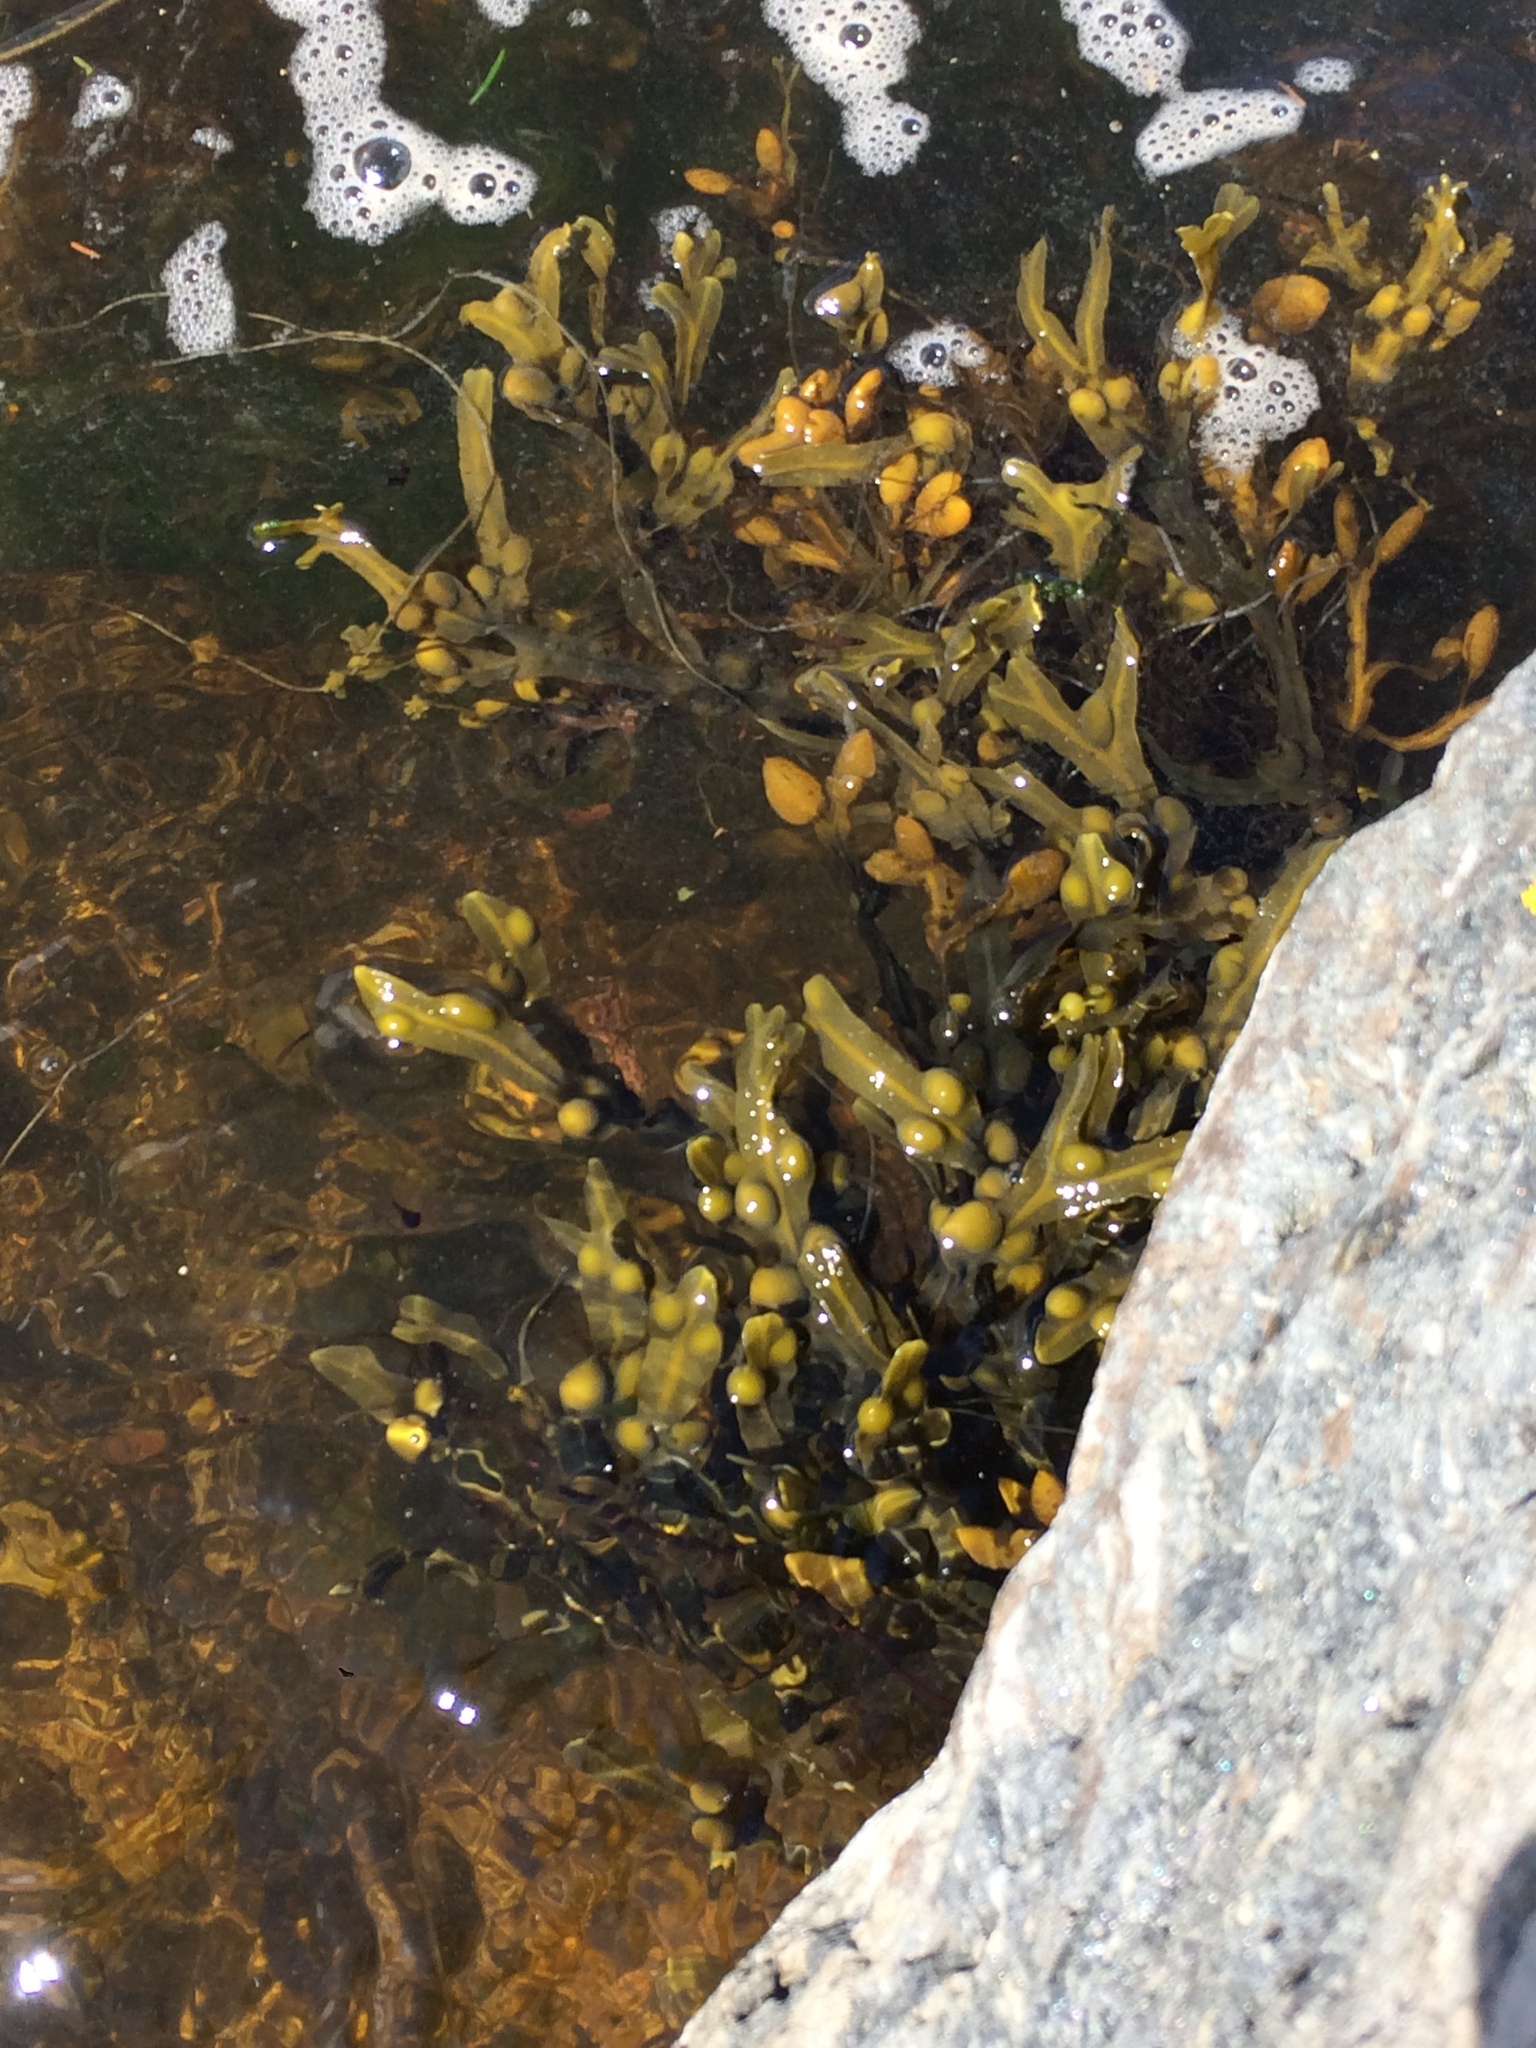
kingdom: Chromista
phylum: Ochrophyta
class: Phaeophyceae
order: Fucales
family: Fucaceae
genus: Fucus
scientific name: Fucus vesiculosus
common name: Bladder wrack
